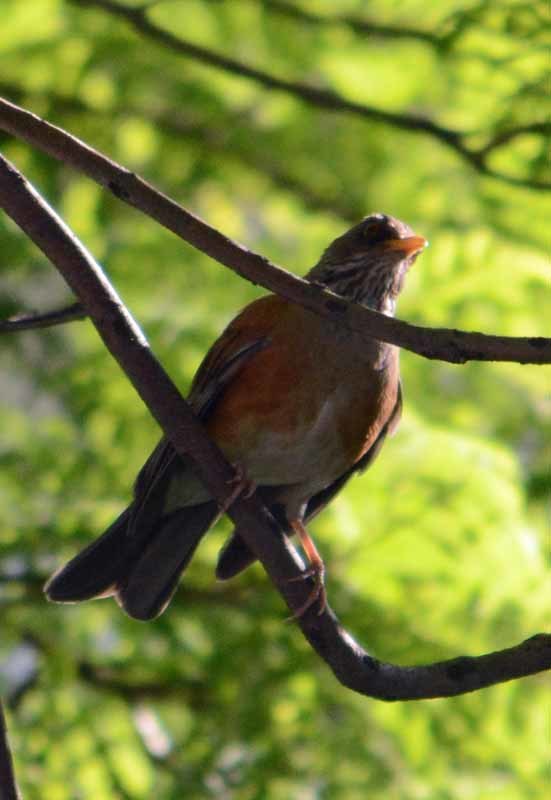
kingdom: Animalia
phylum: Chordata
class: Aves
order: Passeriformes
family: Turdidae
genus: Turdus
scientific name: Turdus rufopalliatus
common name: Rufous-backed robin
